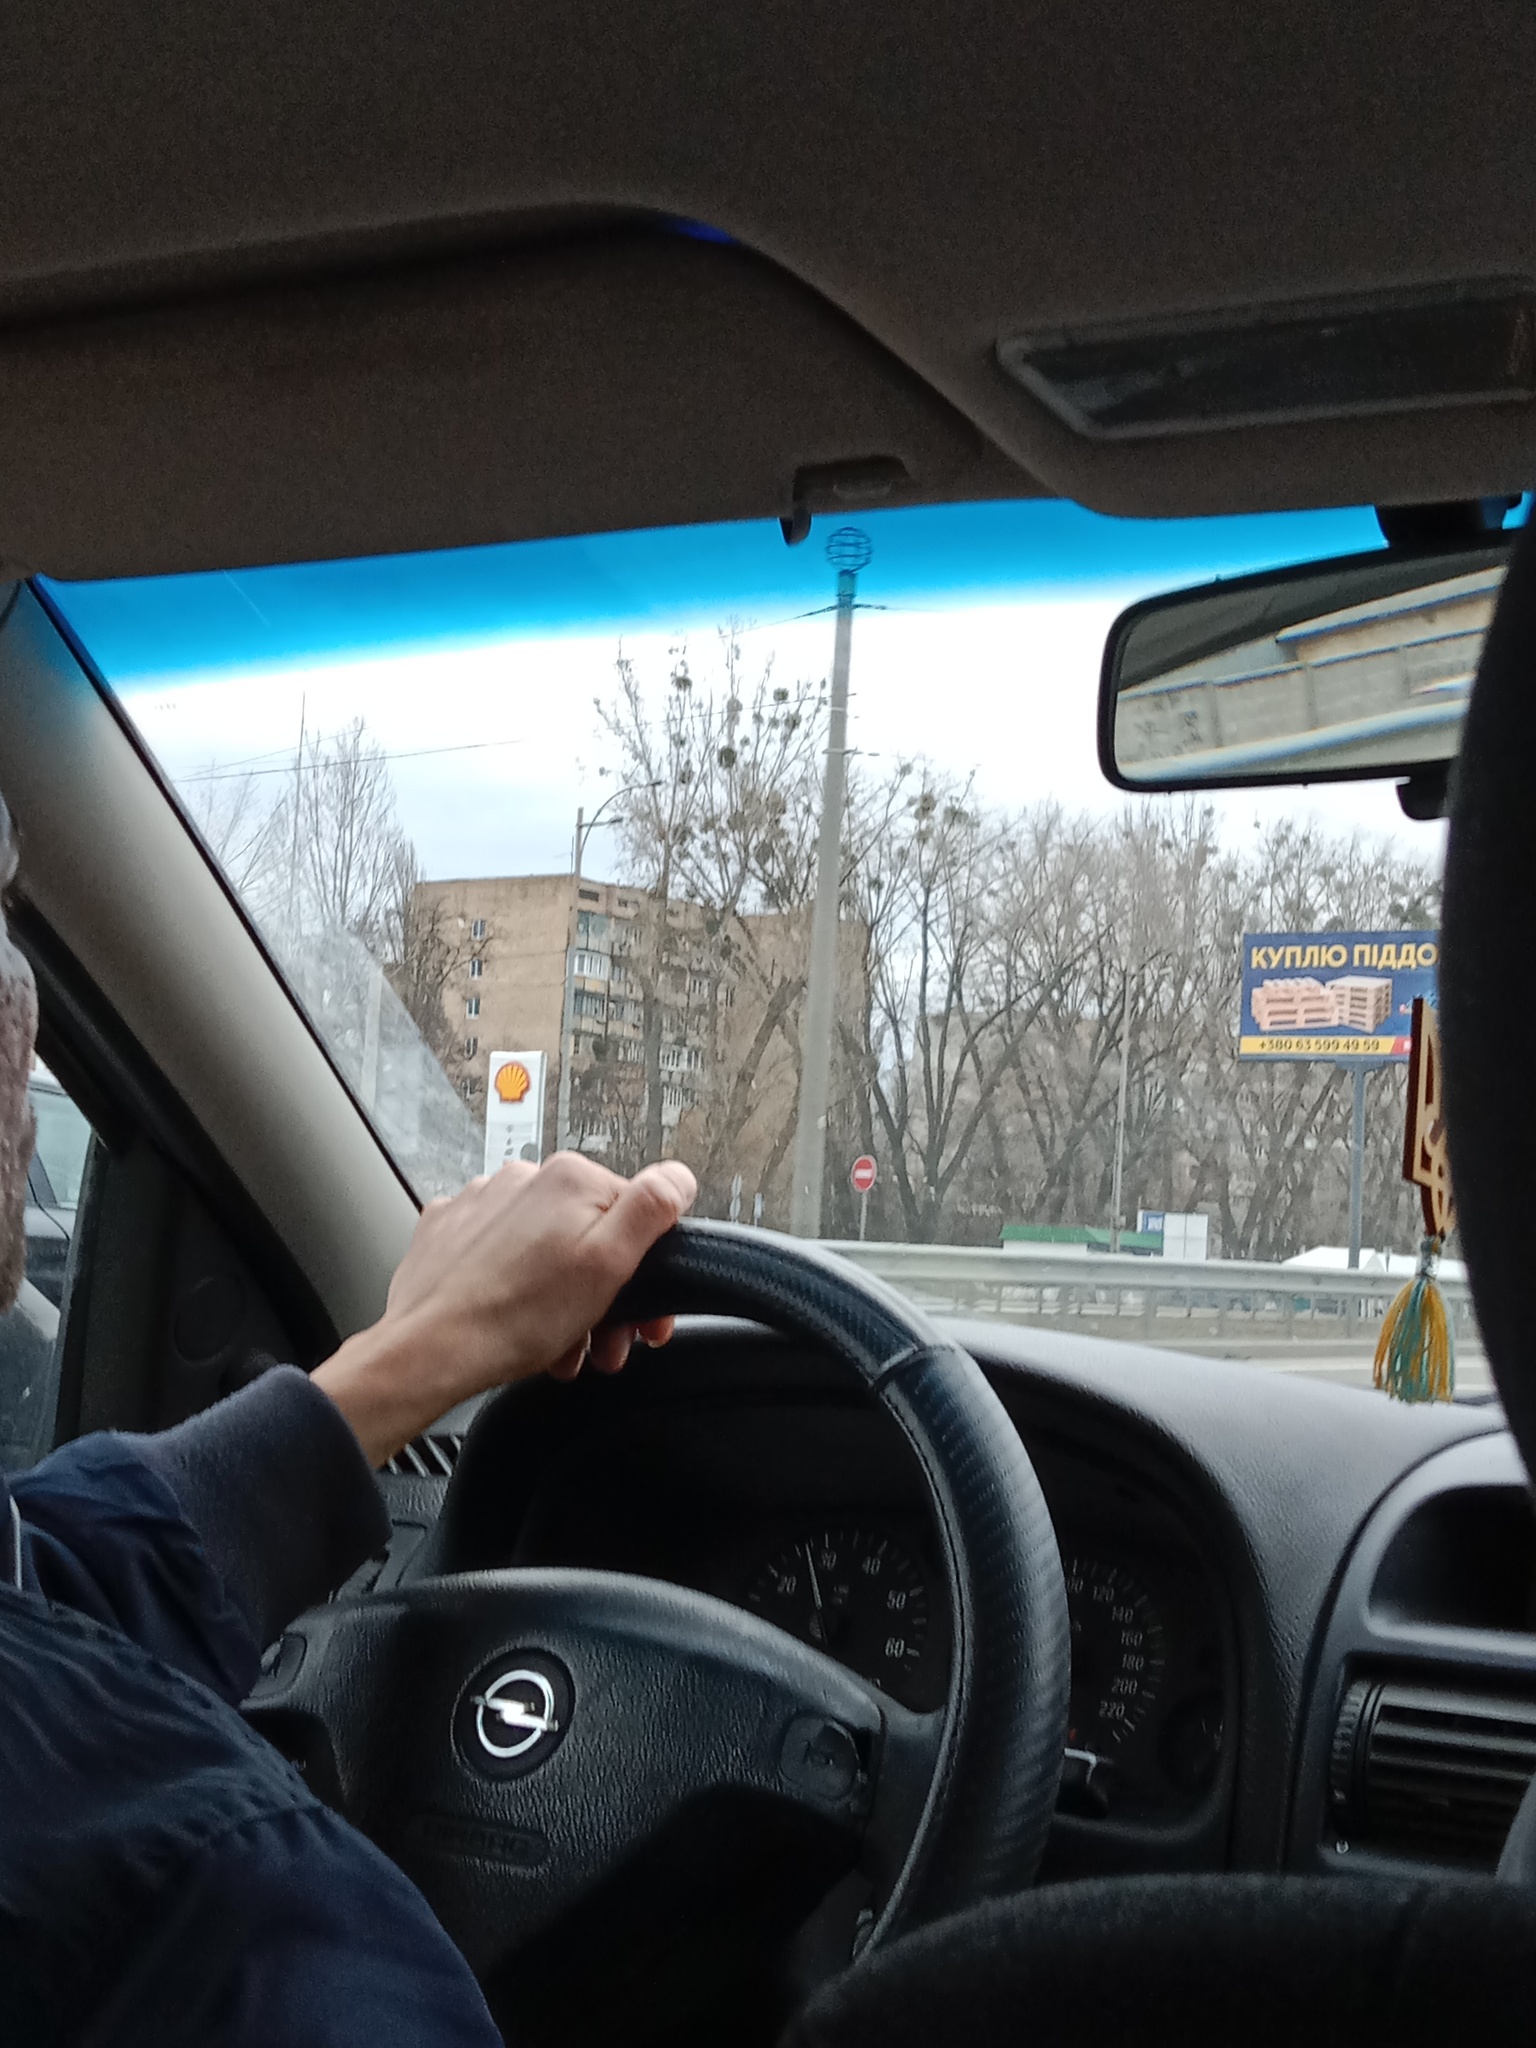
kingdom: Plantae
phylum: Tracheophyta
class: Magnoliopsida
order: Santalales
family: Viscaceae
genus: Viscum
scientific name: Viscum album
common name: Mistletoe
